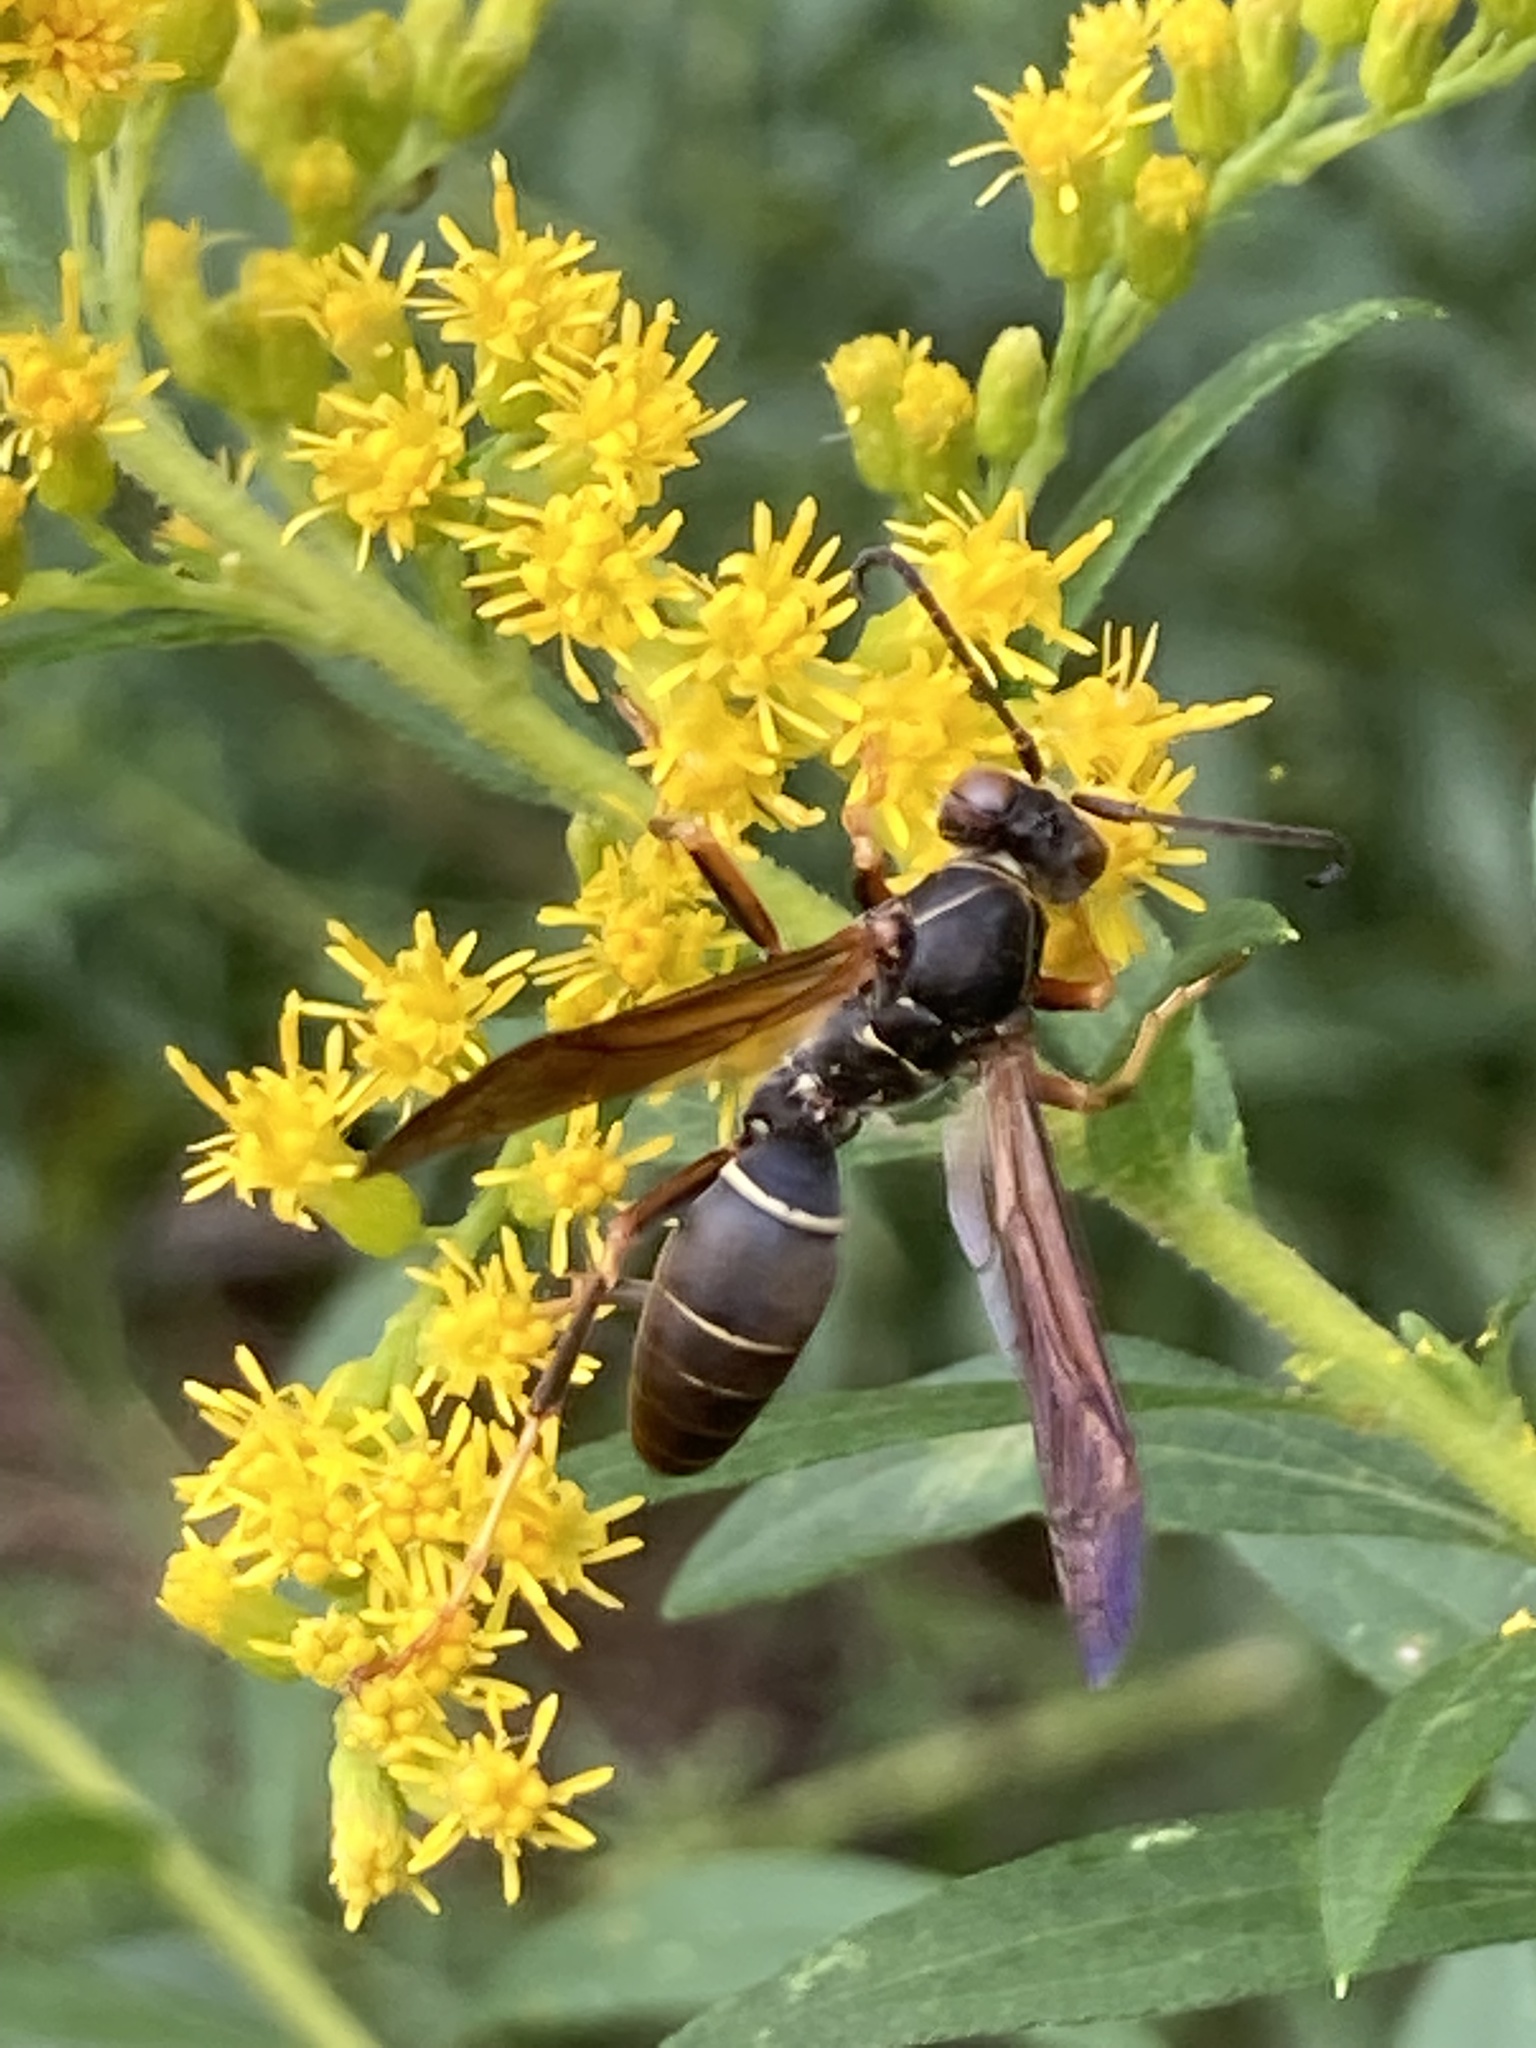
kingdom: Animalia
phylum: Arthropoda
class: Insecta
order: Hymenoptera
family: Eumenidae
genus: Polistes
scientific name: Polistes fuscatus
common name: Dark paper wasp
